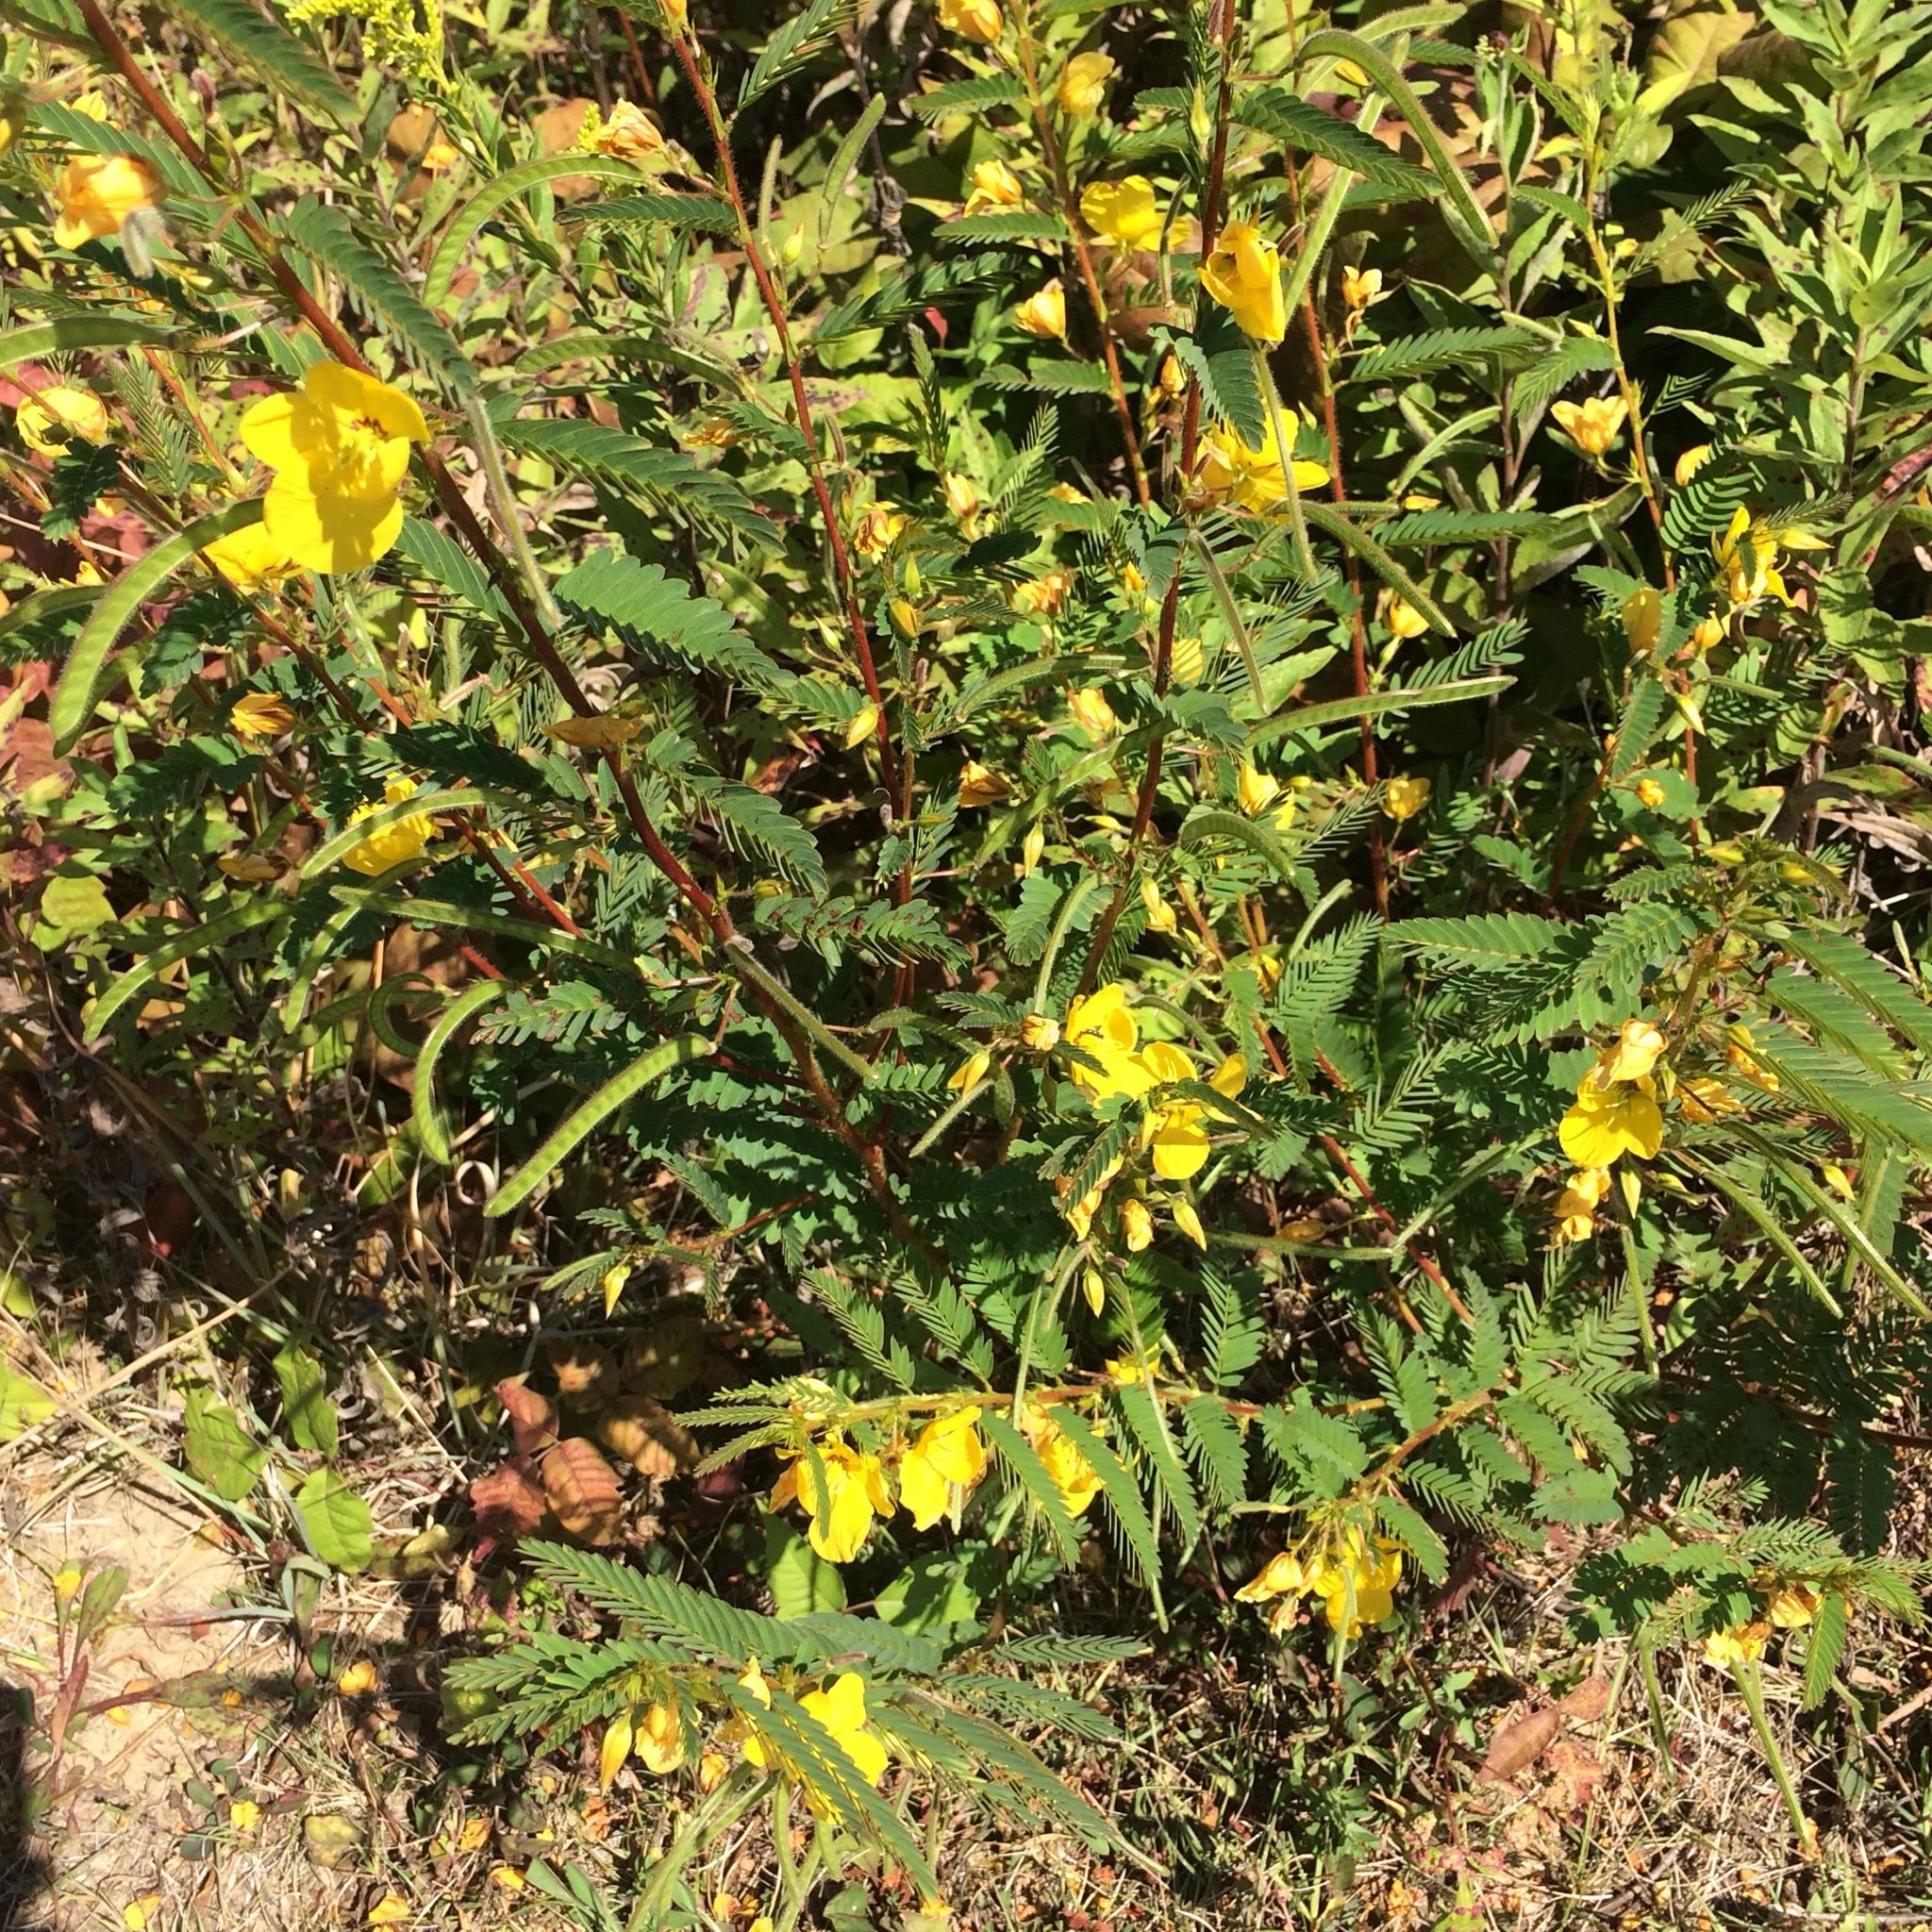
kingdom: Plantae
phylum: Tracheophyta
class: Magnoliopsida
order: Fabales
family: Fabaceae
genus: Chamaecrista
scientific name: Chamaecrista fasciculata
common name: Golden cassia
